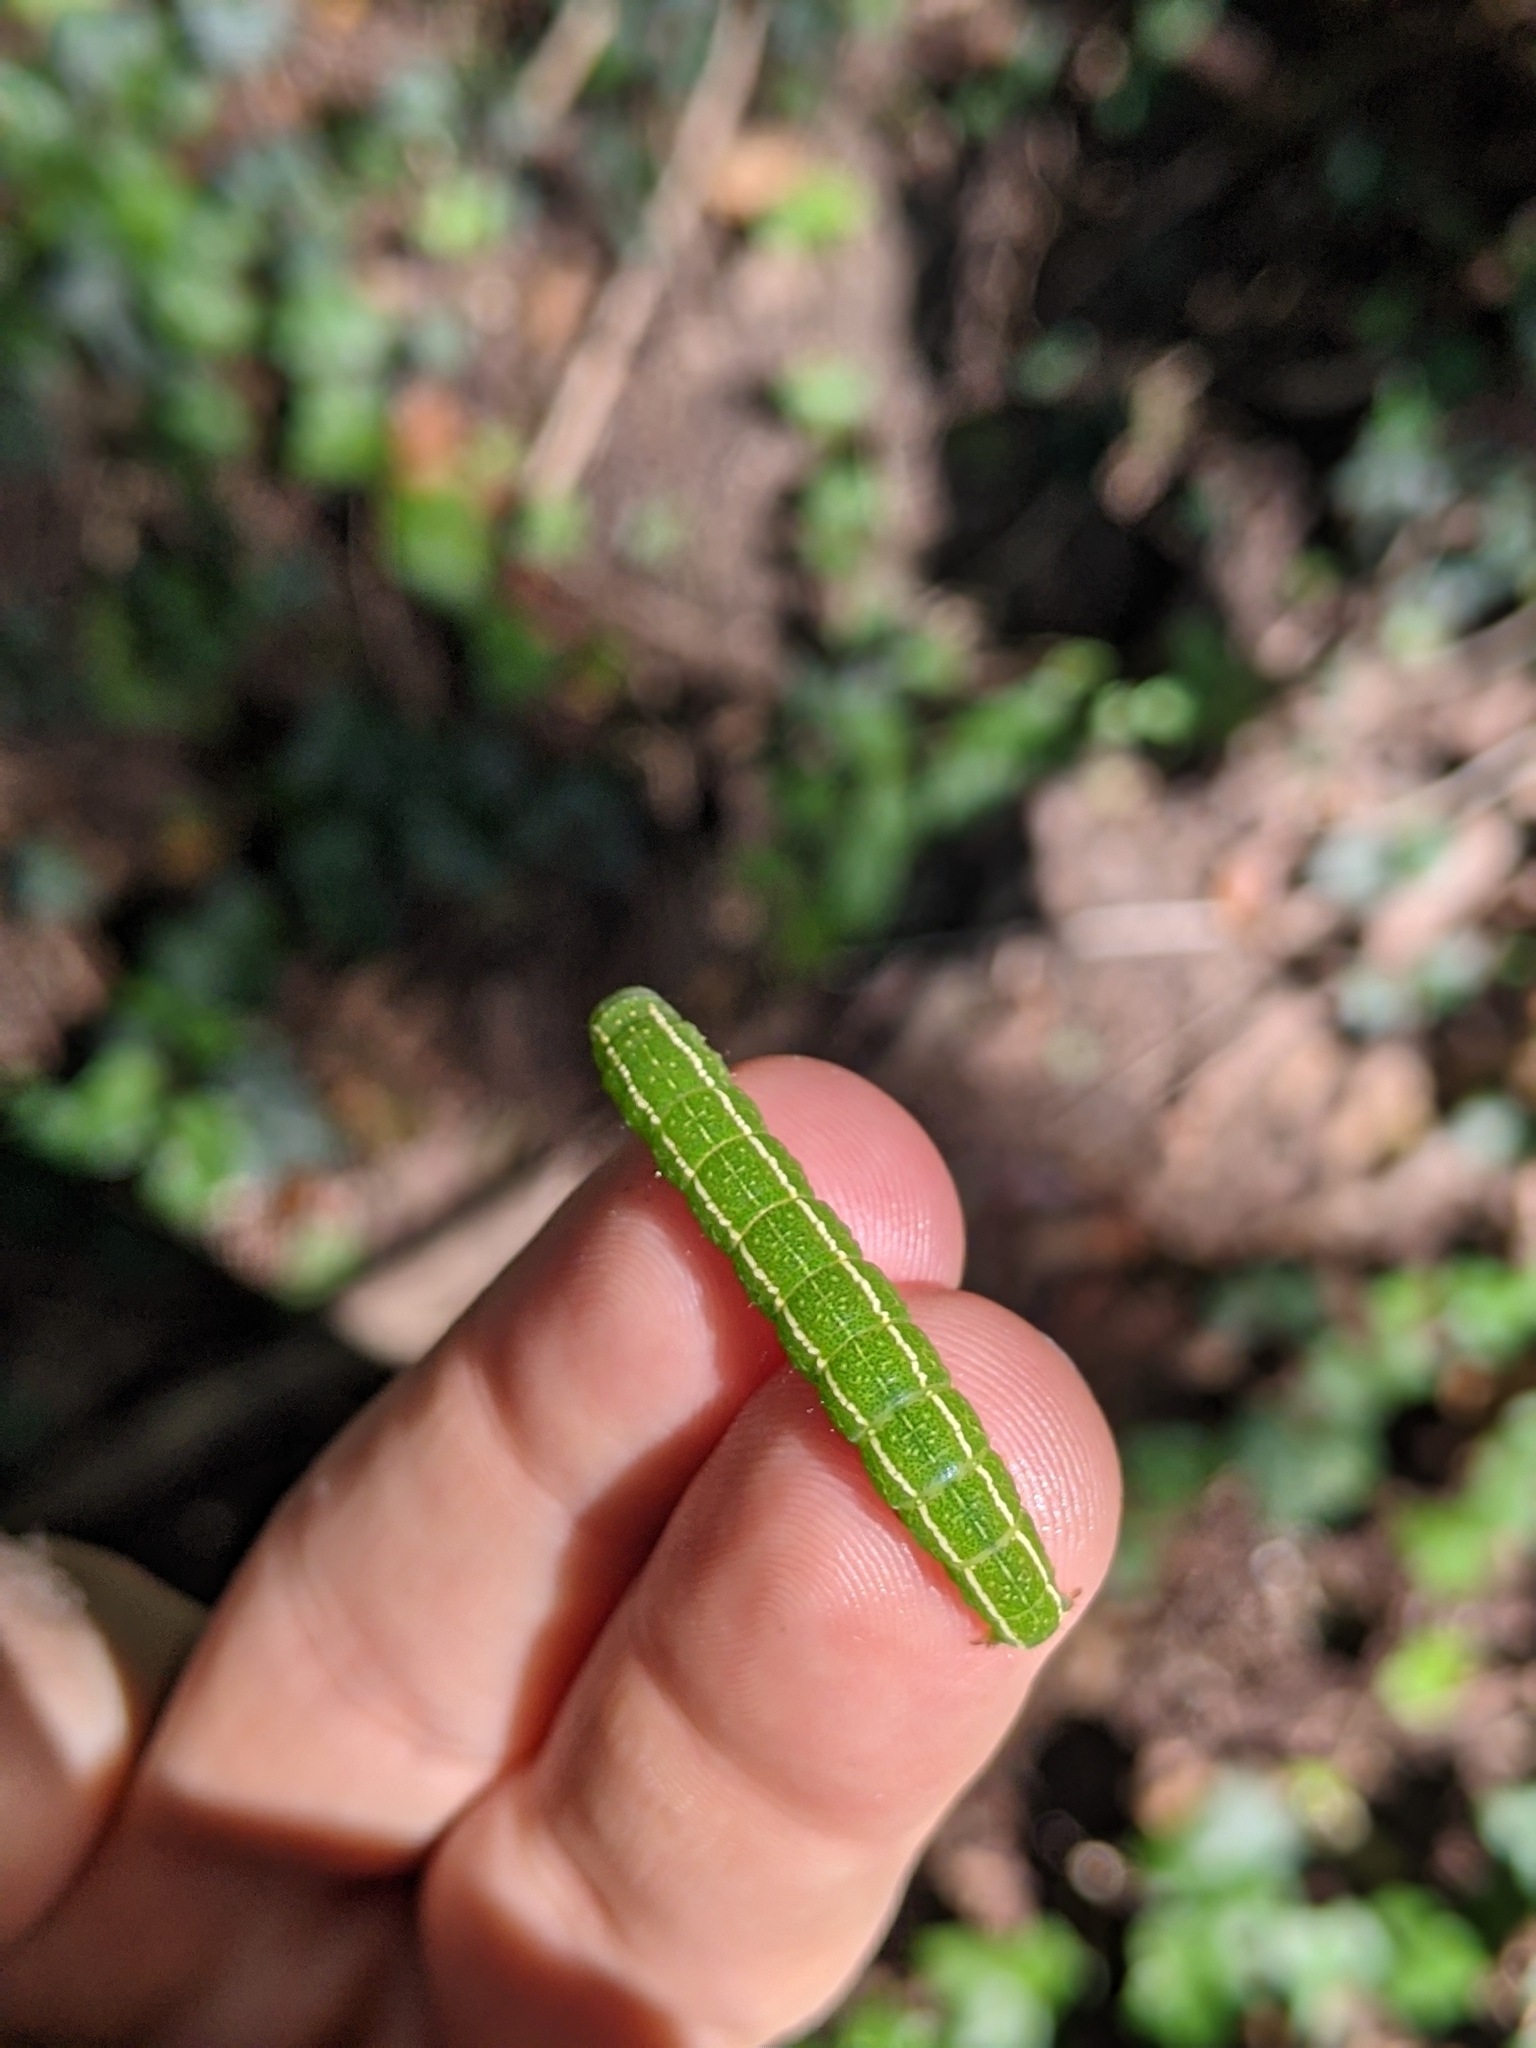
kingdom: Animalia
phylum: Arthropoda
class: Insecta
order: Lepidoptera
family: Erebidae
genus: Panopoda
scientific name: Panopoda rufimargo
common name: Red-lined panopoda moth
